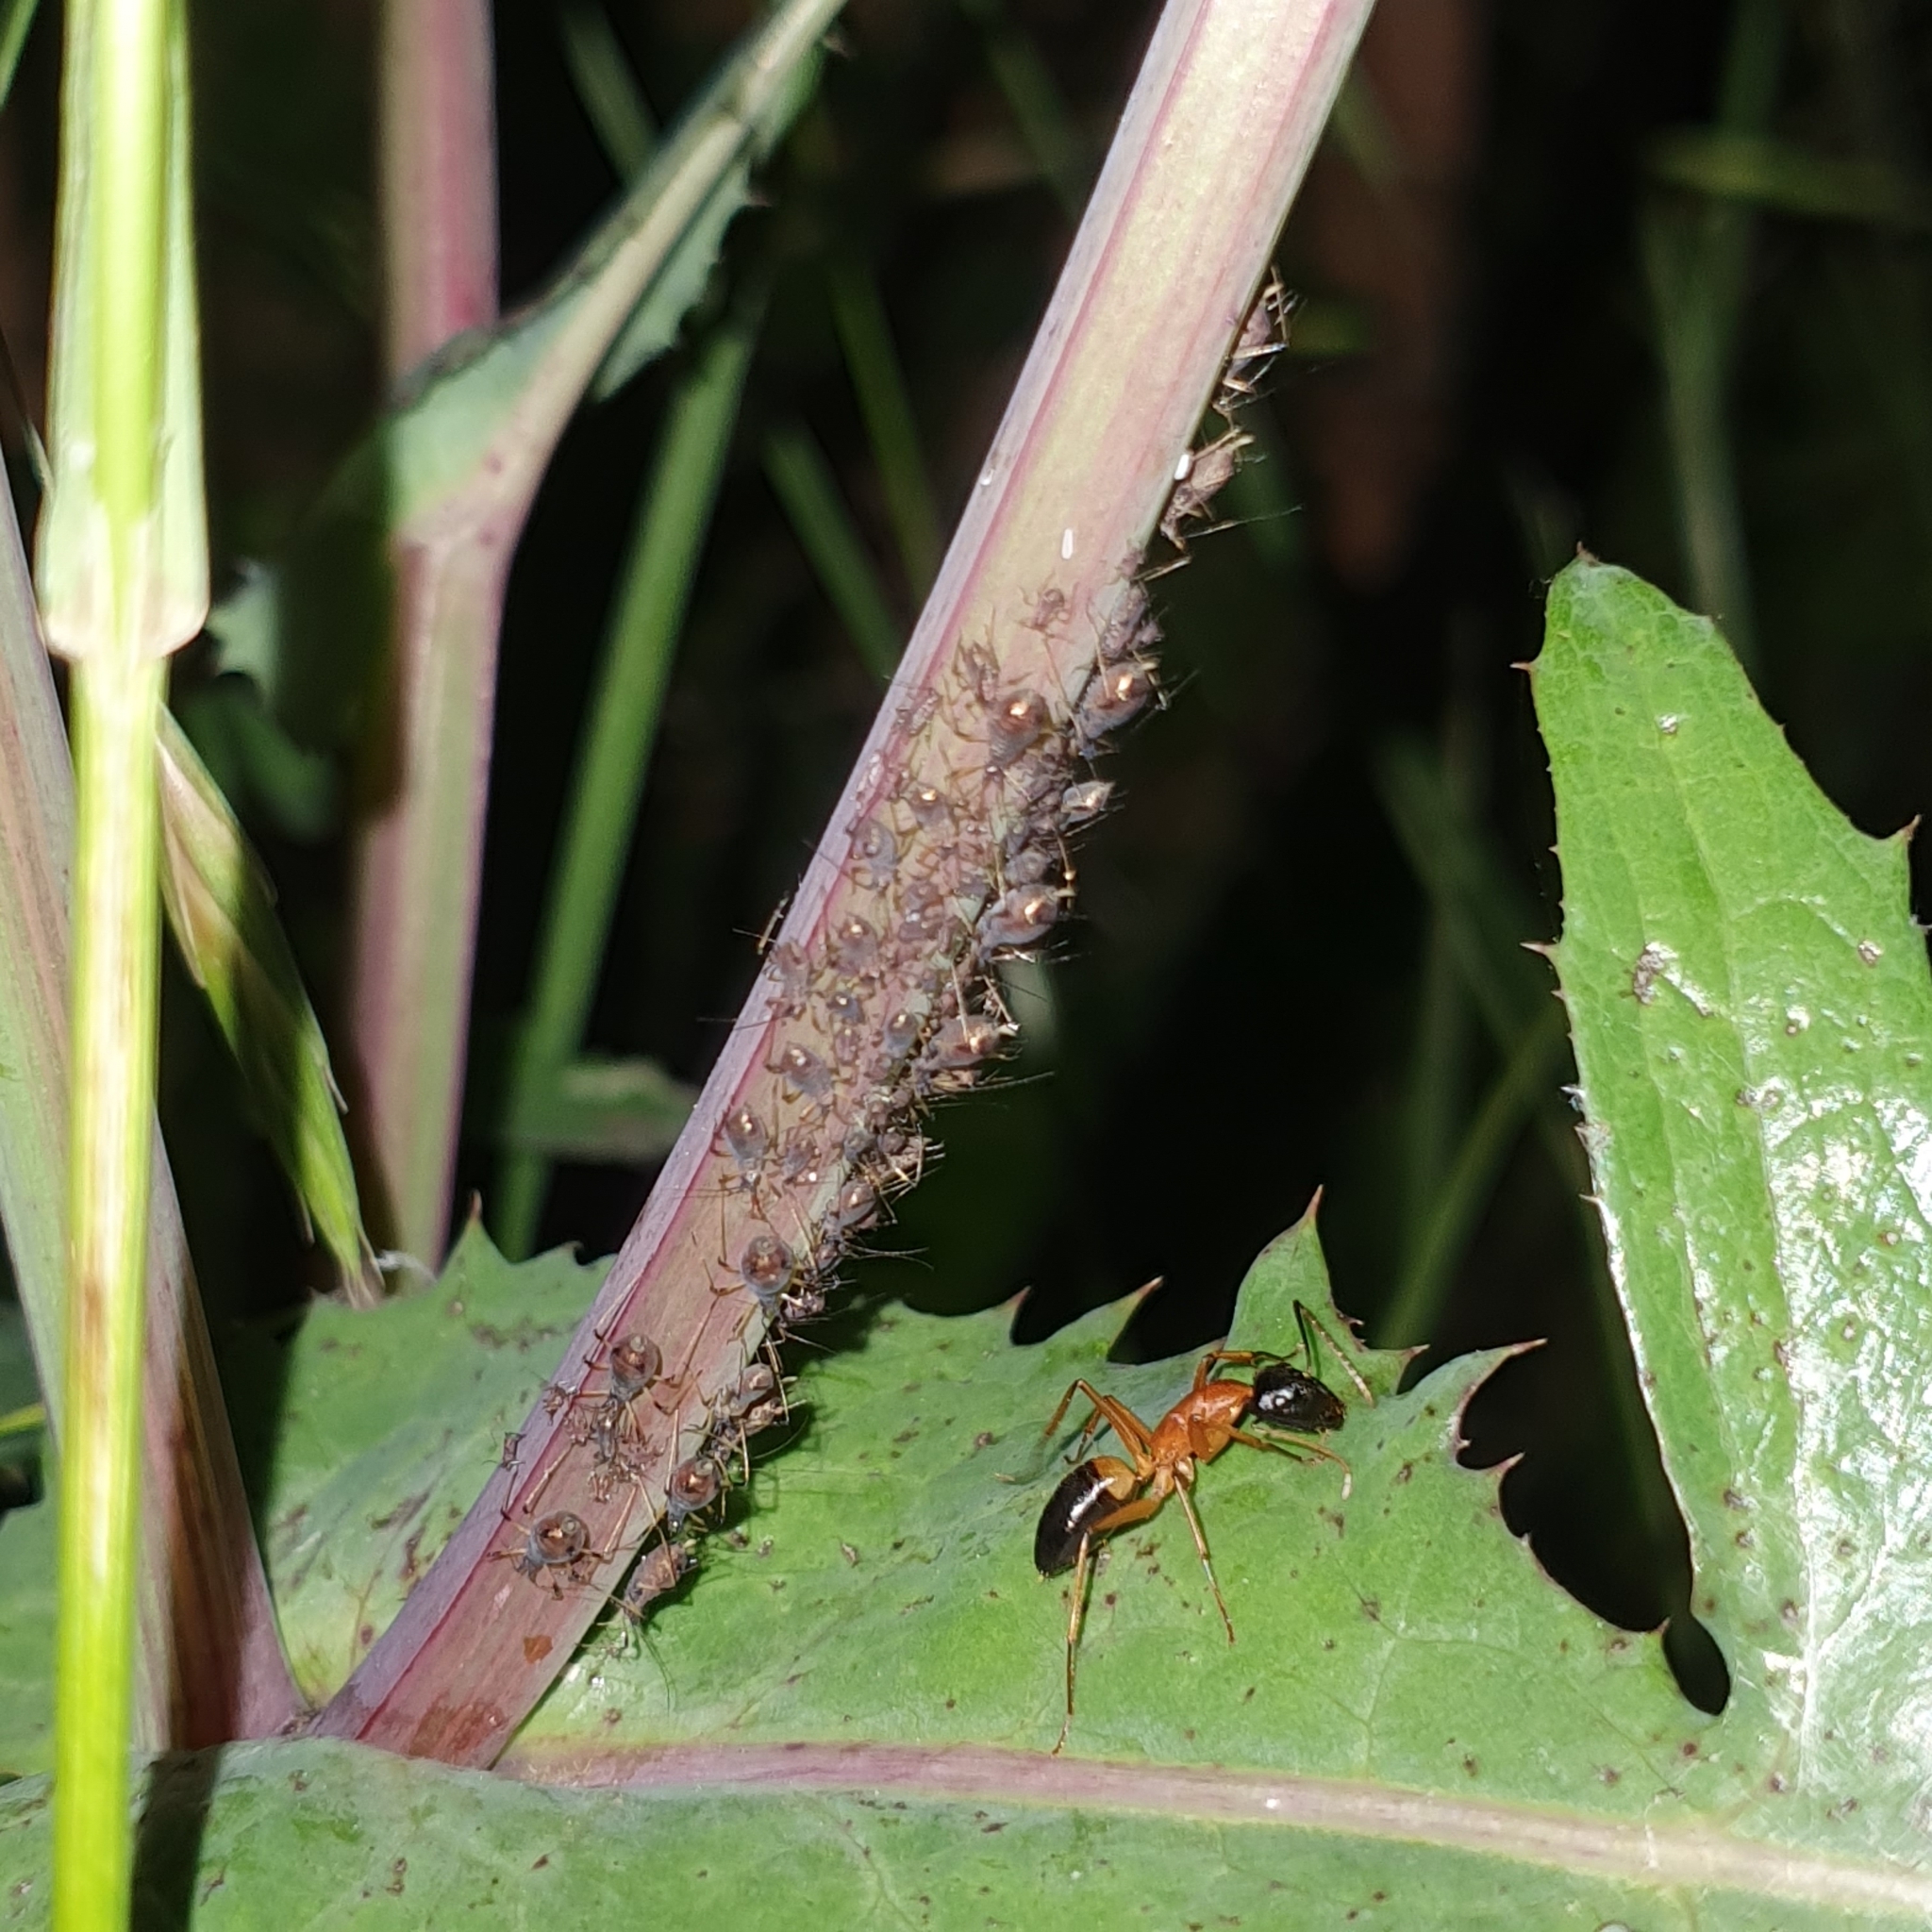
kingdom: Animalia
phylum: Arthropoda
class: Insecta
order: Hymenoptera
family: Formicidae
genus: Camponotus
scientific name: Camponotus consobrinus
